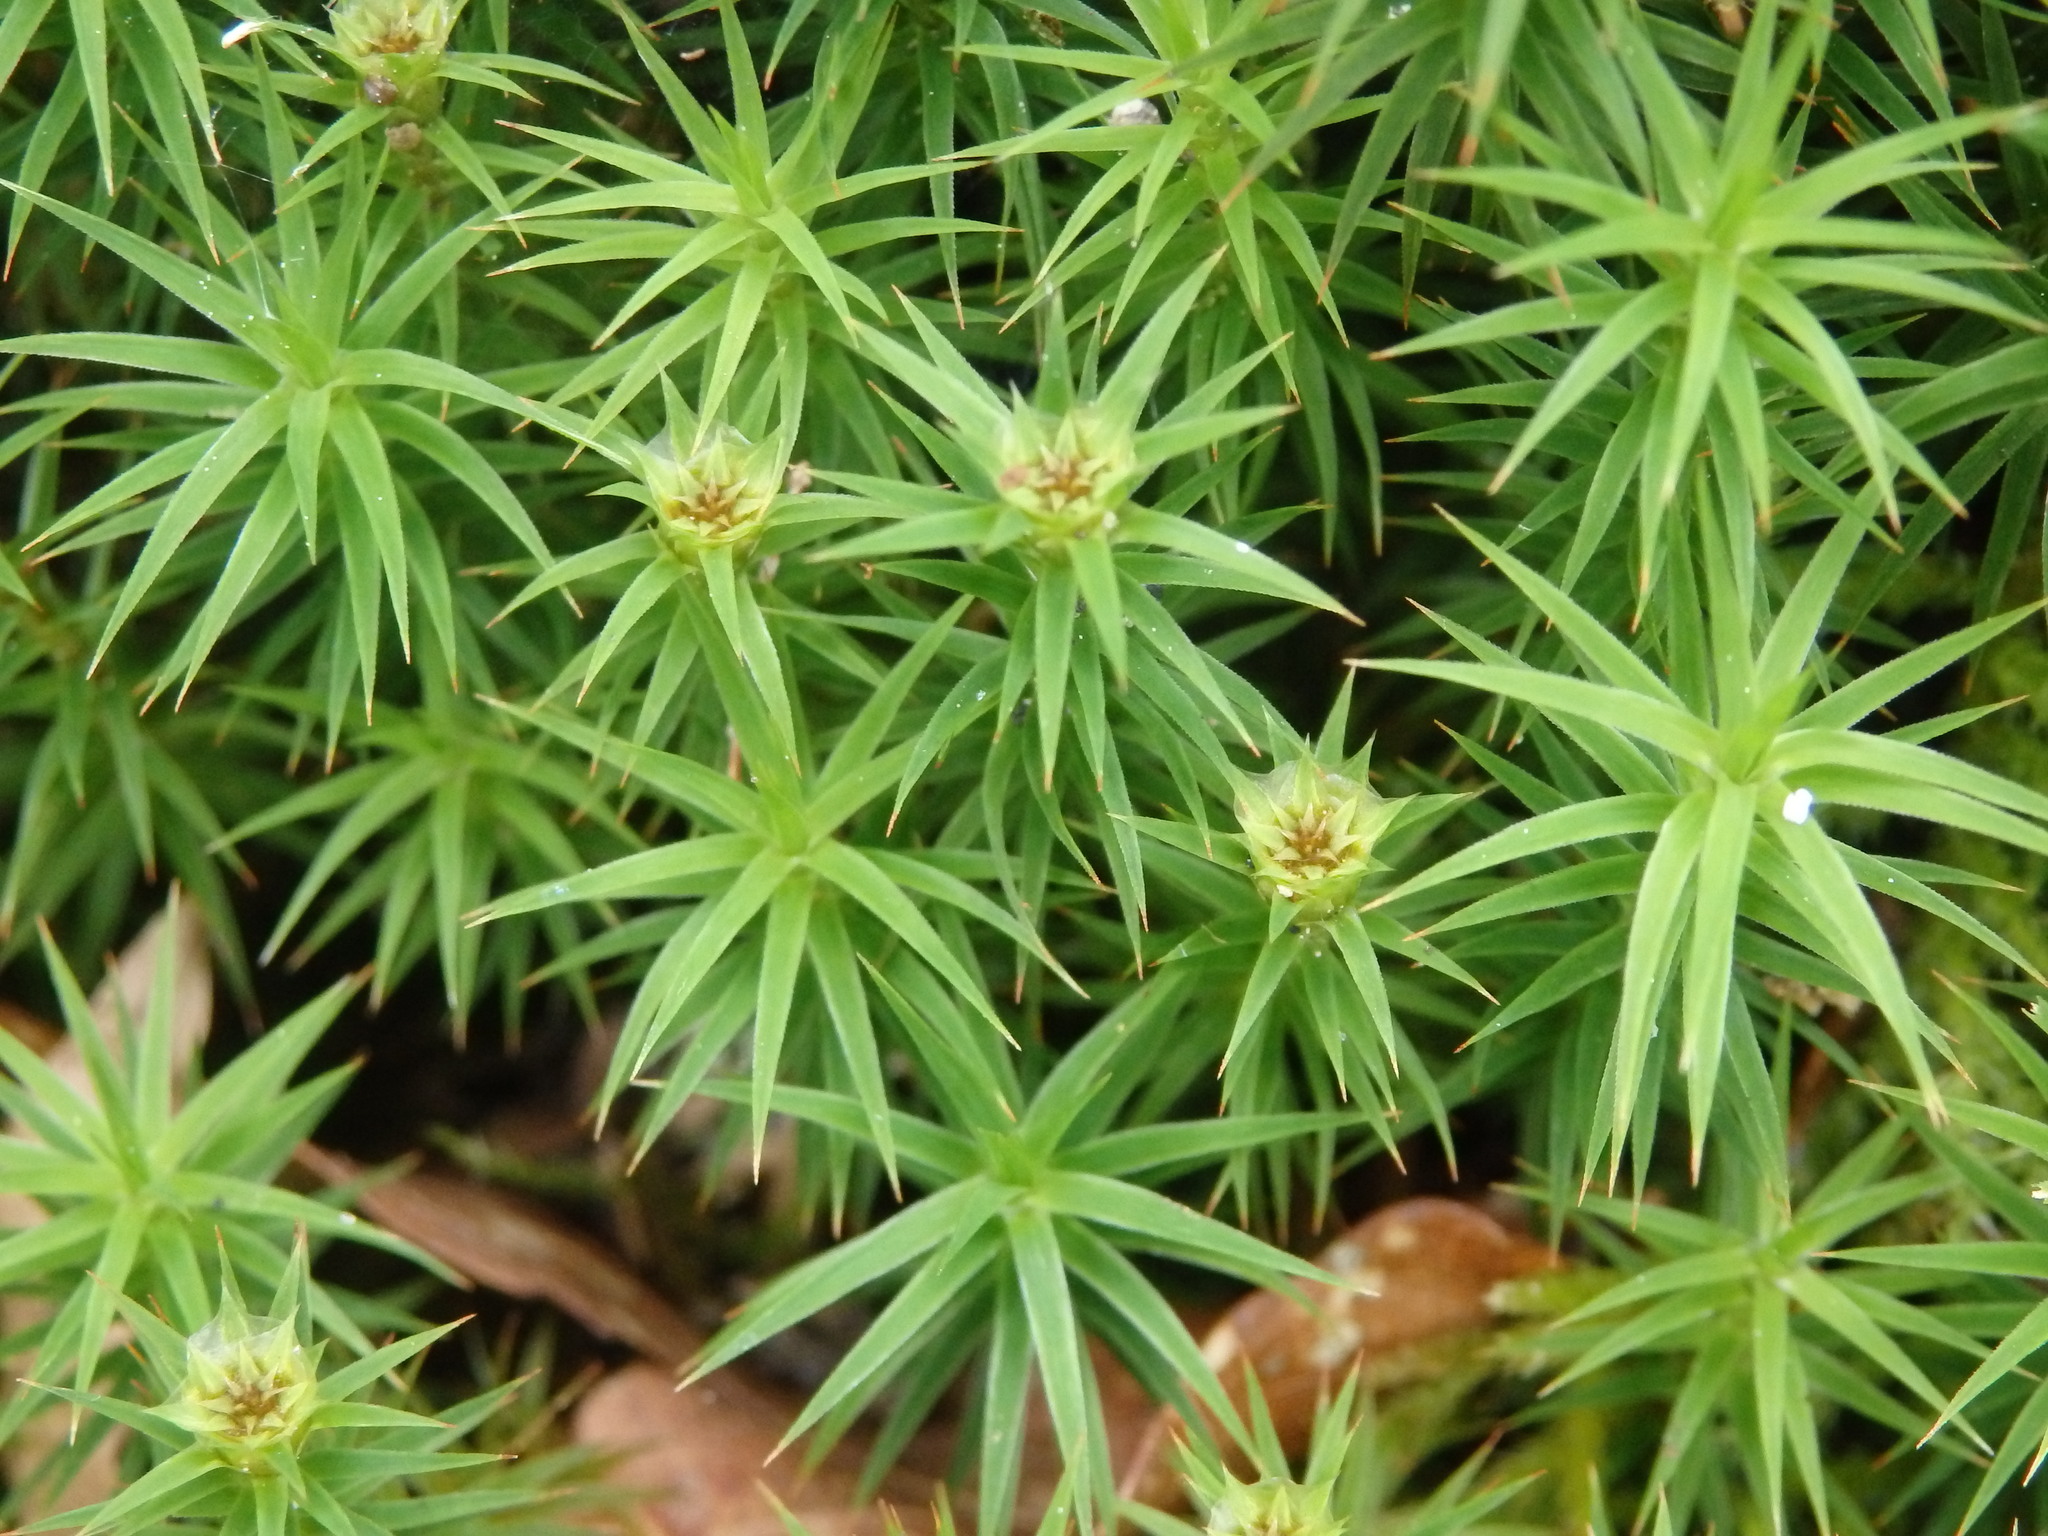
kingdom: Plantae
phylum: Bryophyta
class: Polytrichopsida
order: Polytrichales
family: Polytrichaceae
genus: Polytrichum
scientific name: Polytrichum formosum
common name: Bank haircap moss
